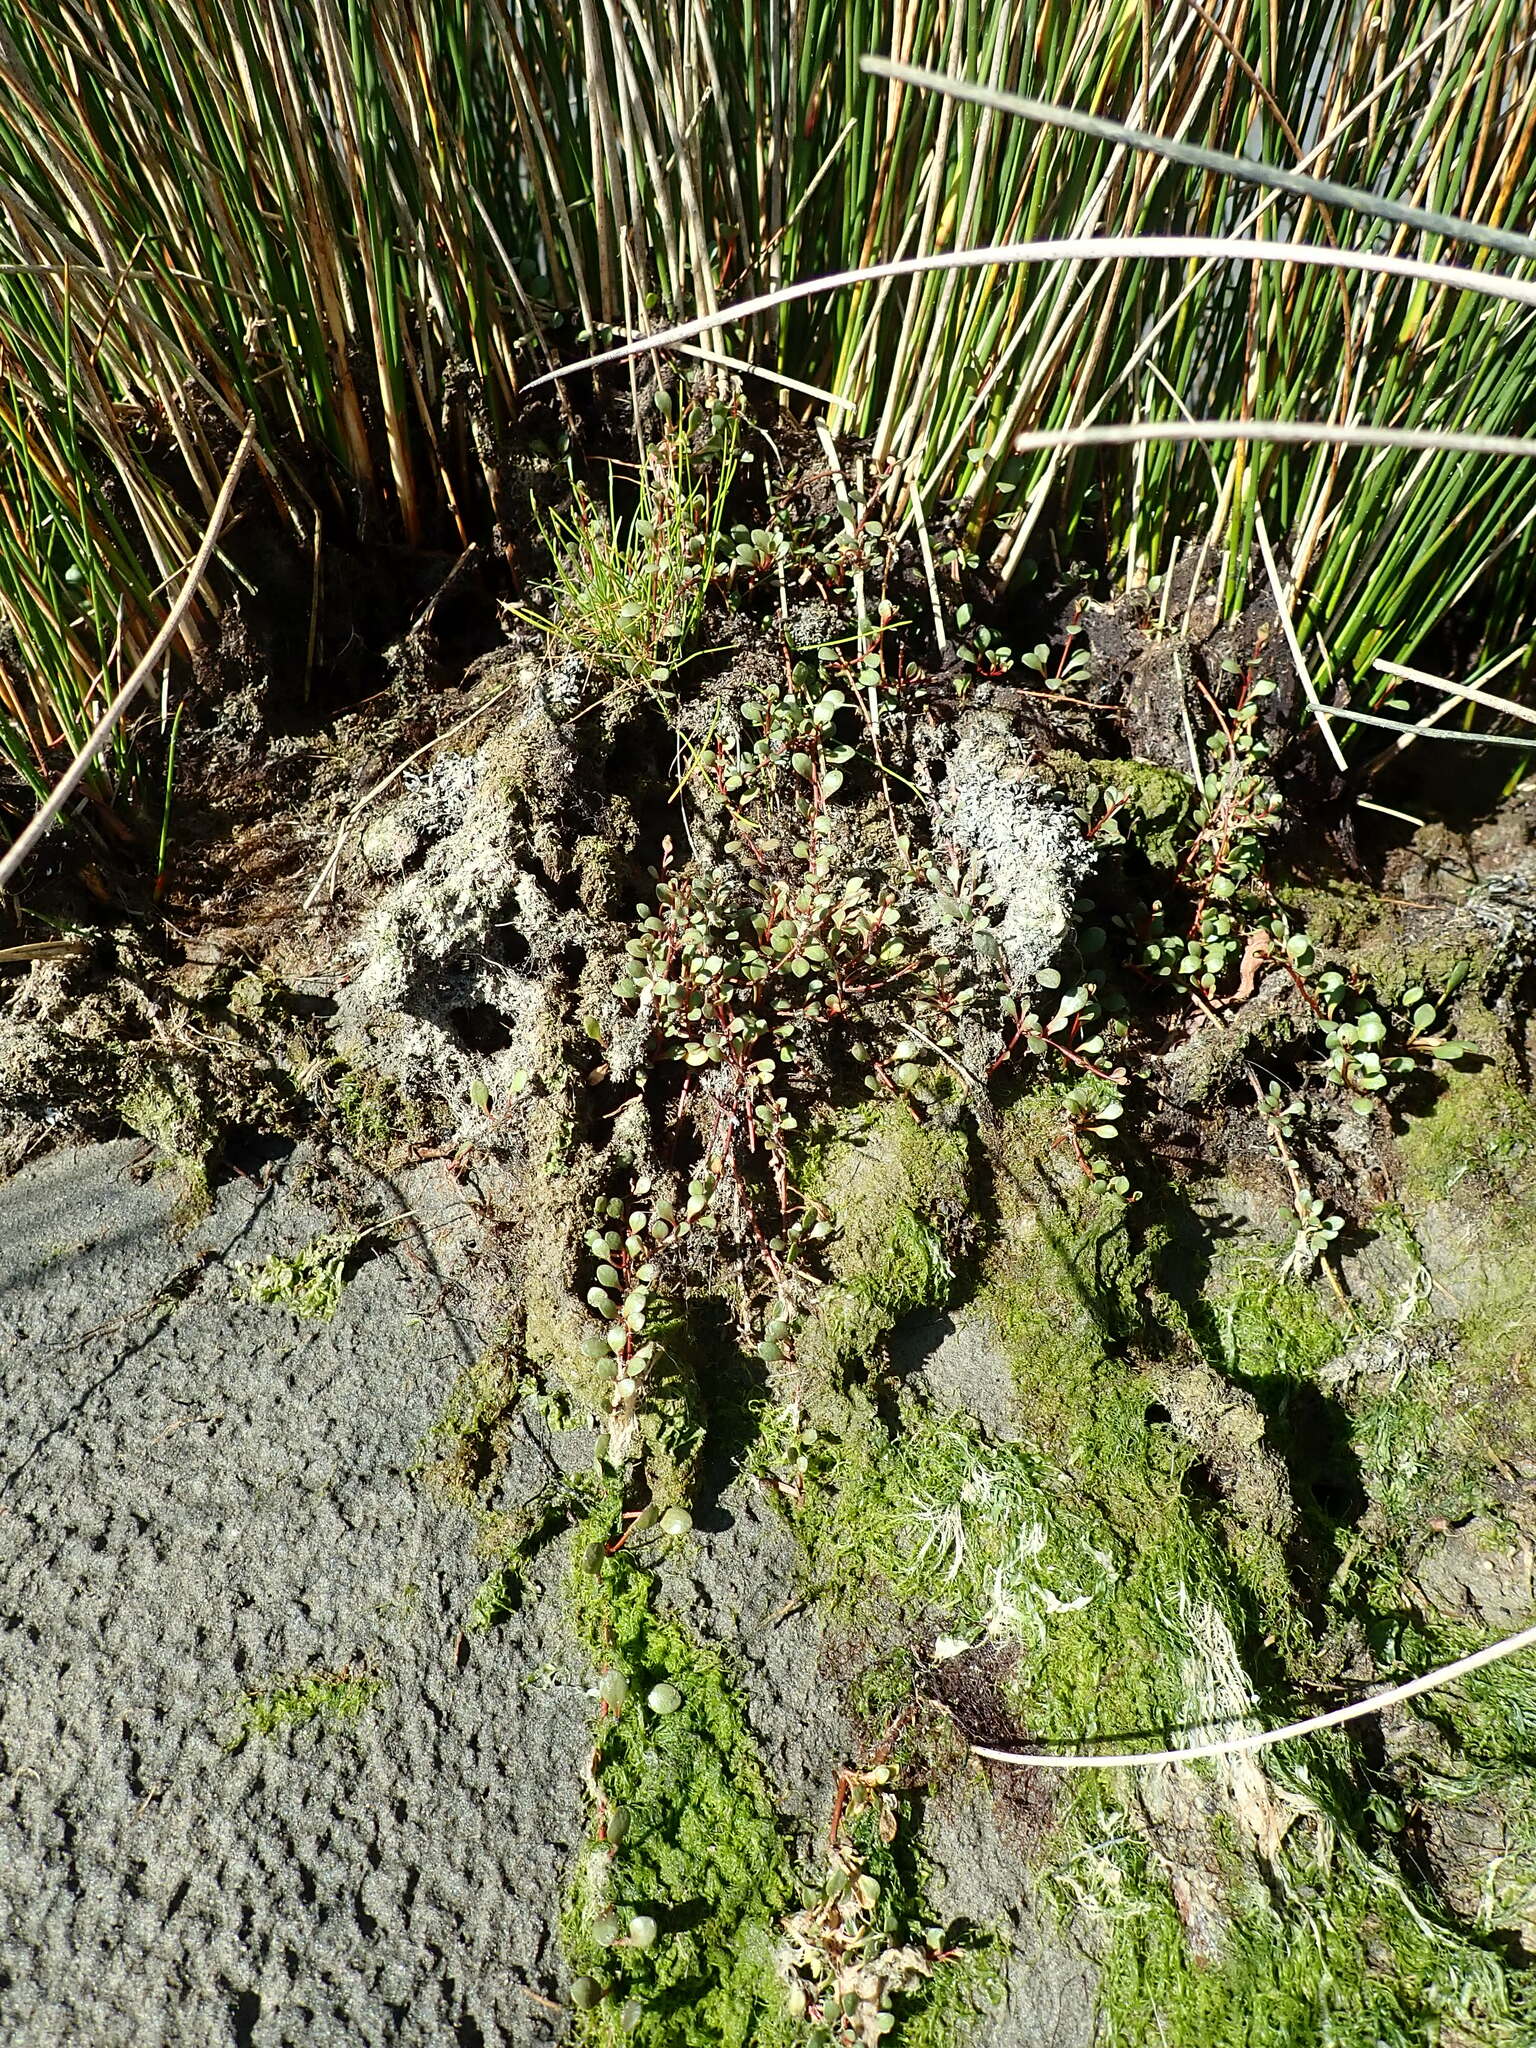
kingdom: Plantae
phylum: Tracheophyta
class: Magnoliopsida
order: Ericales
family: Primulaceae
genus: Samolus
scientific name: Samolus repens
